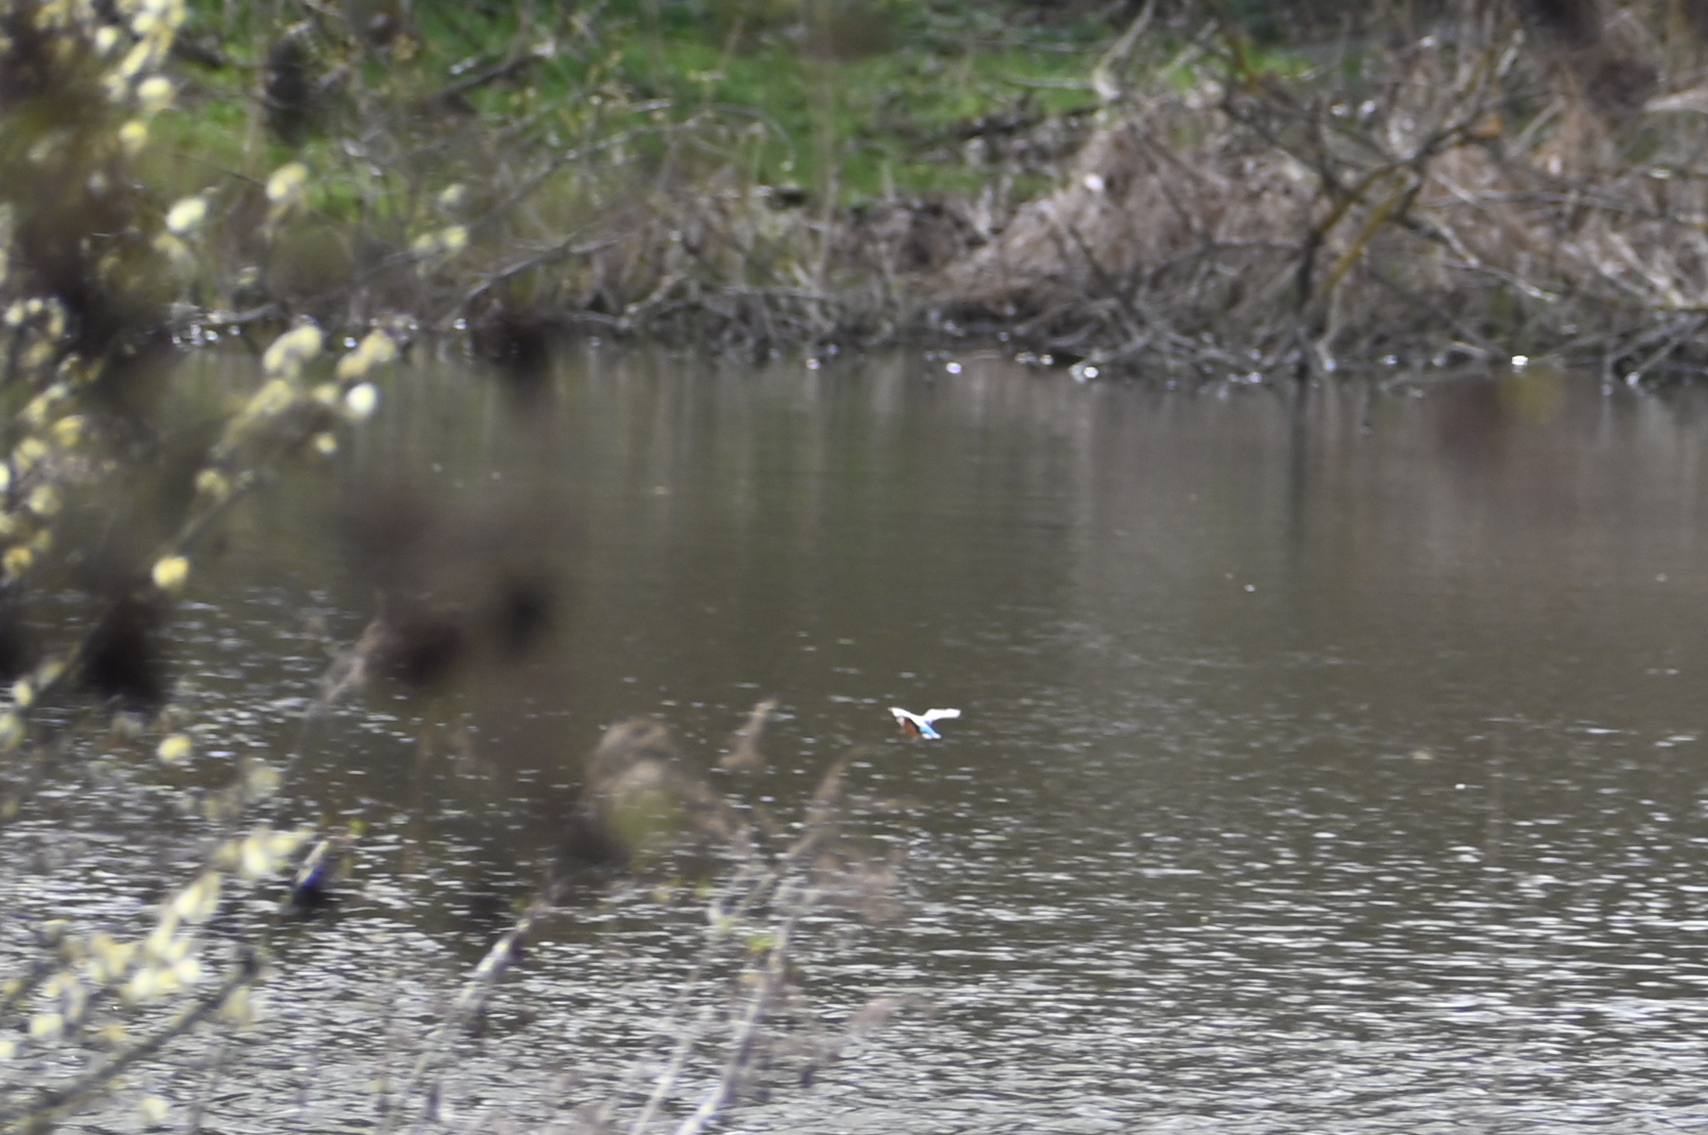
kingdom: Animalia
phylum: Chordata
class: Aves
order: Coraciiformes
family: Alcedinidae
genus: Alcedo
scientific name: Alcedo atthis
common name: Common kingfisher
